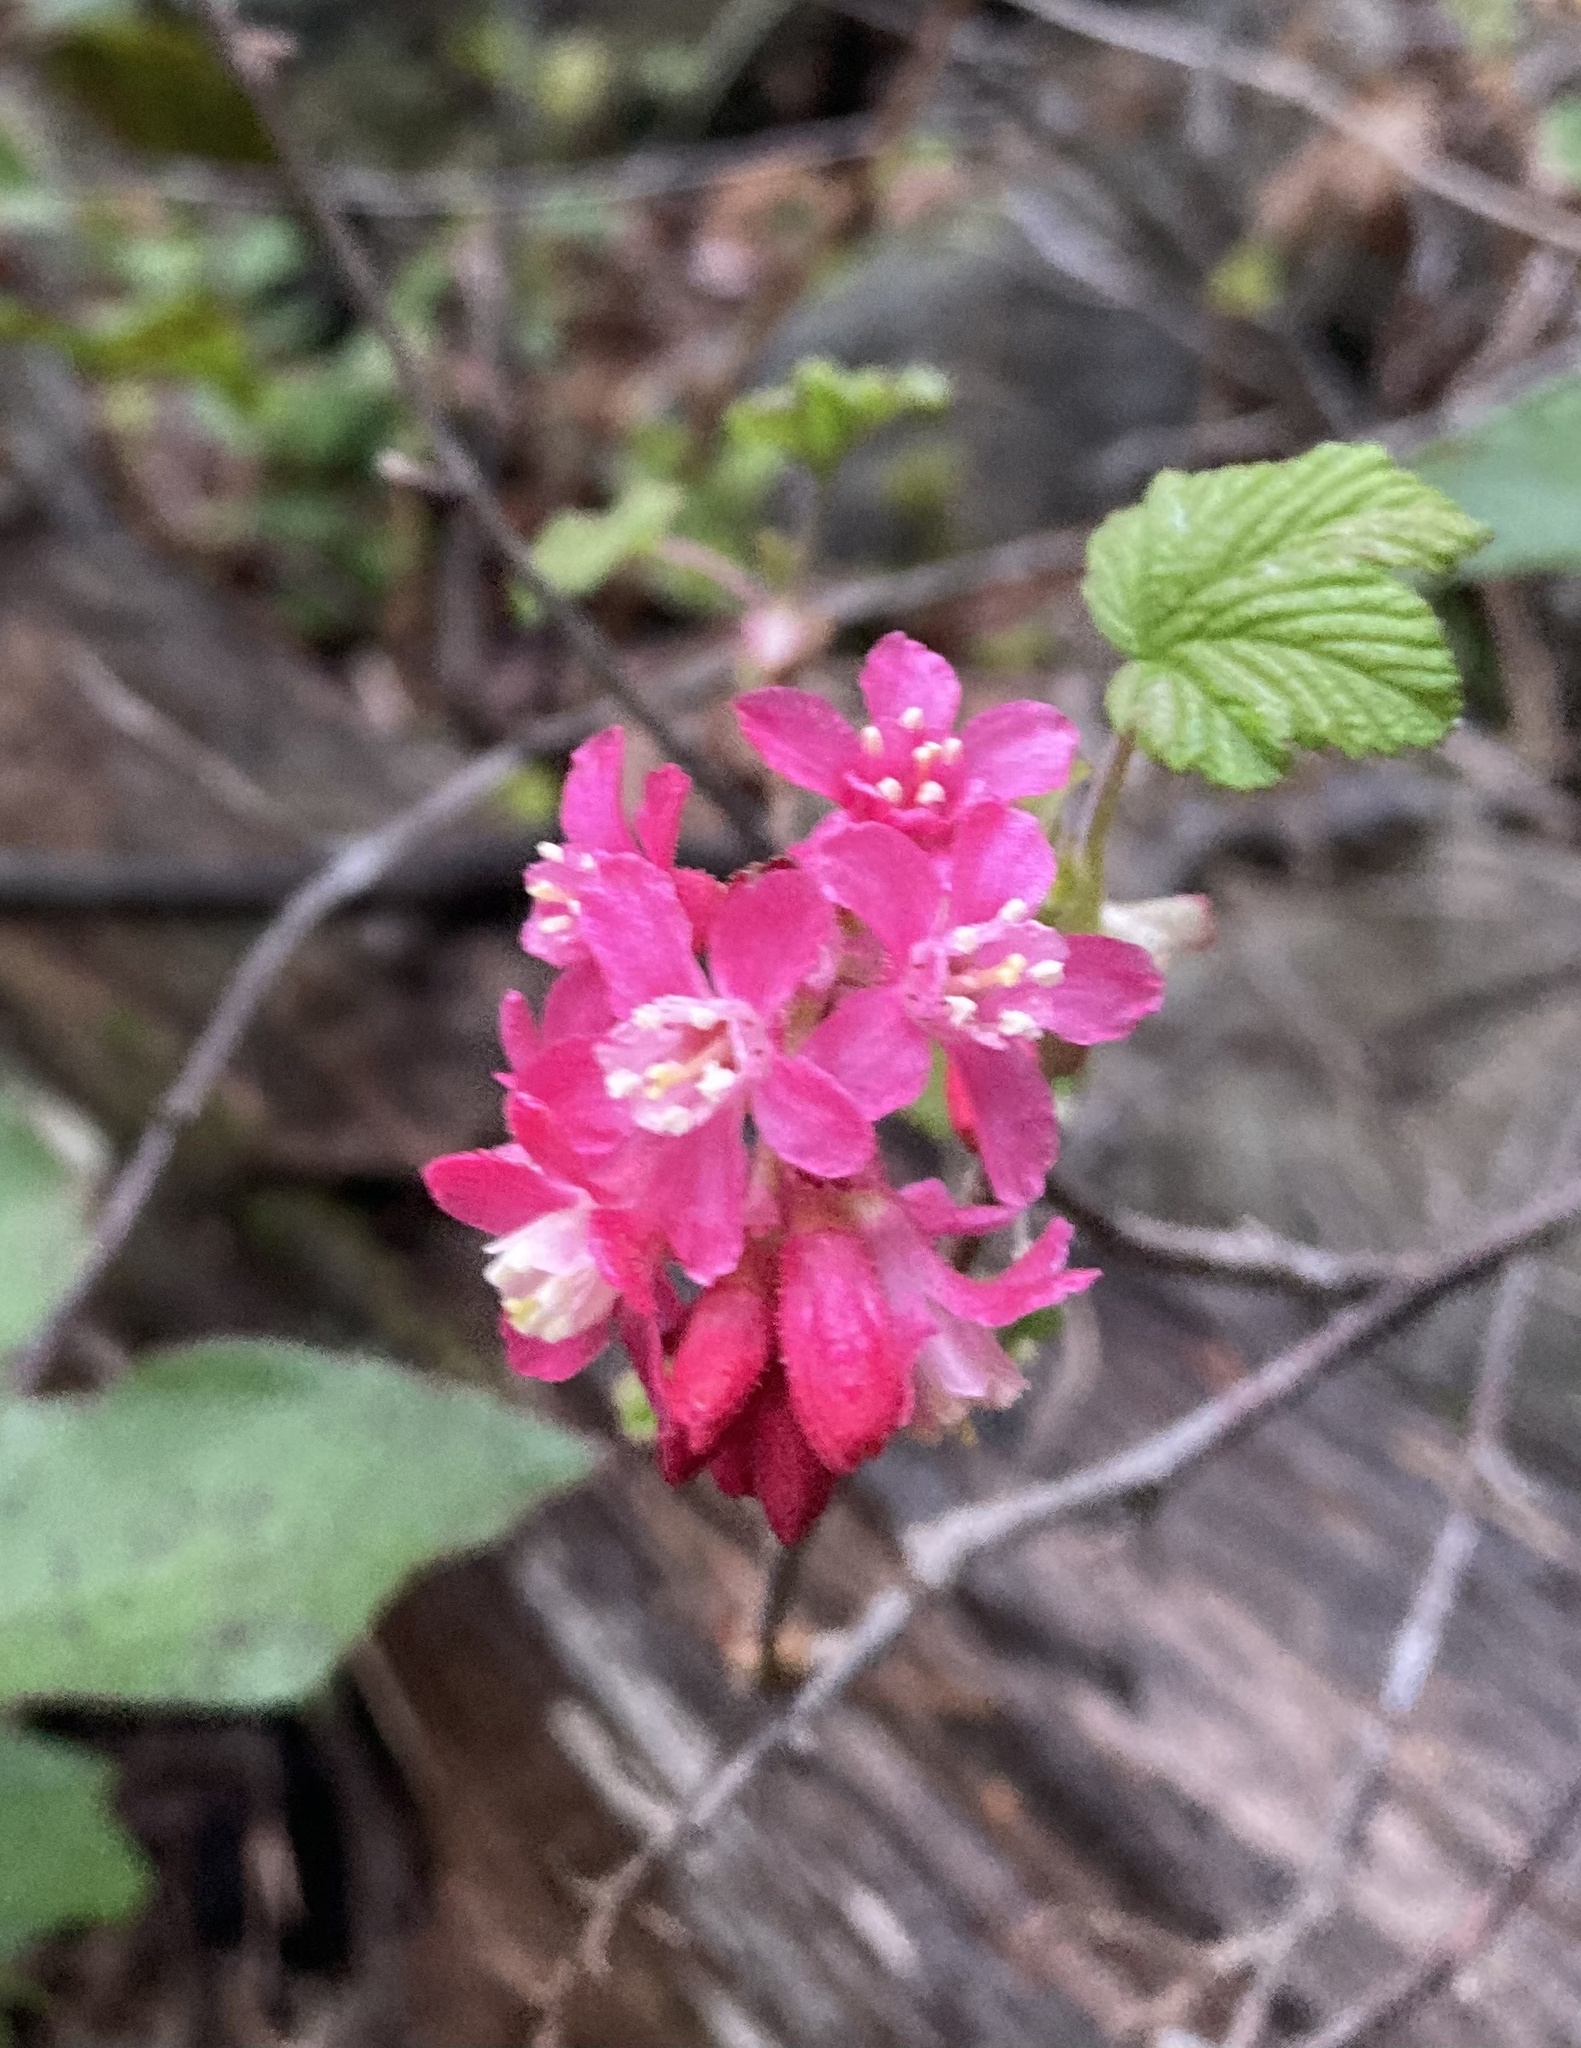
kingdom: Plantae
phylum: Tracheophyta
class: Magnoliopsida
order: Saxifragales
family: Grossulariaceae
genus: Ribes
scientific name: Ribes sanguineum
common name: Flowering currant
